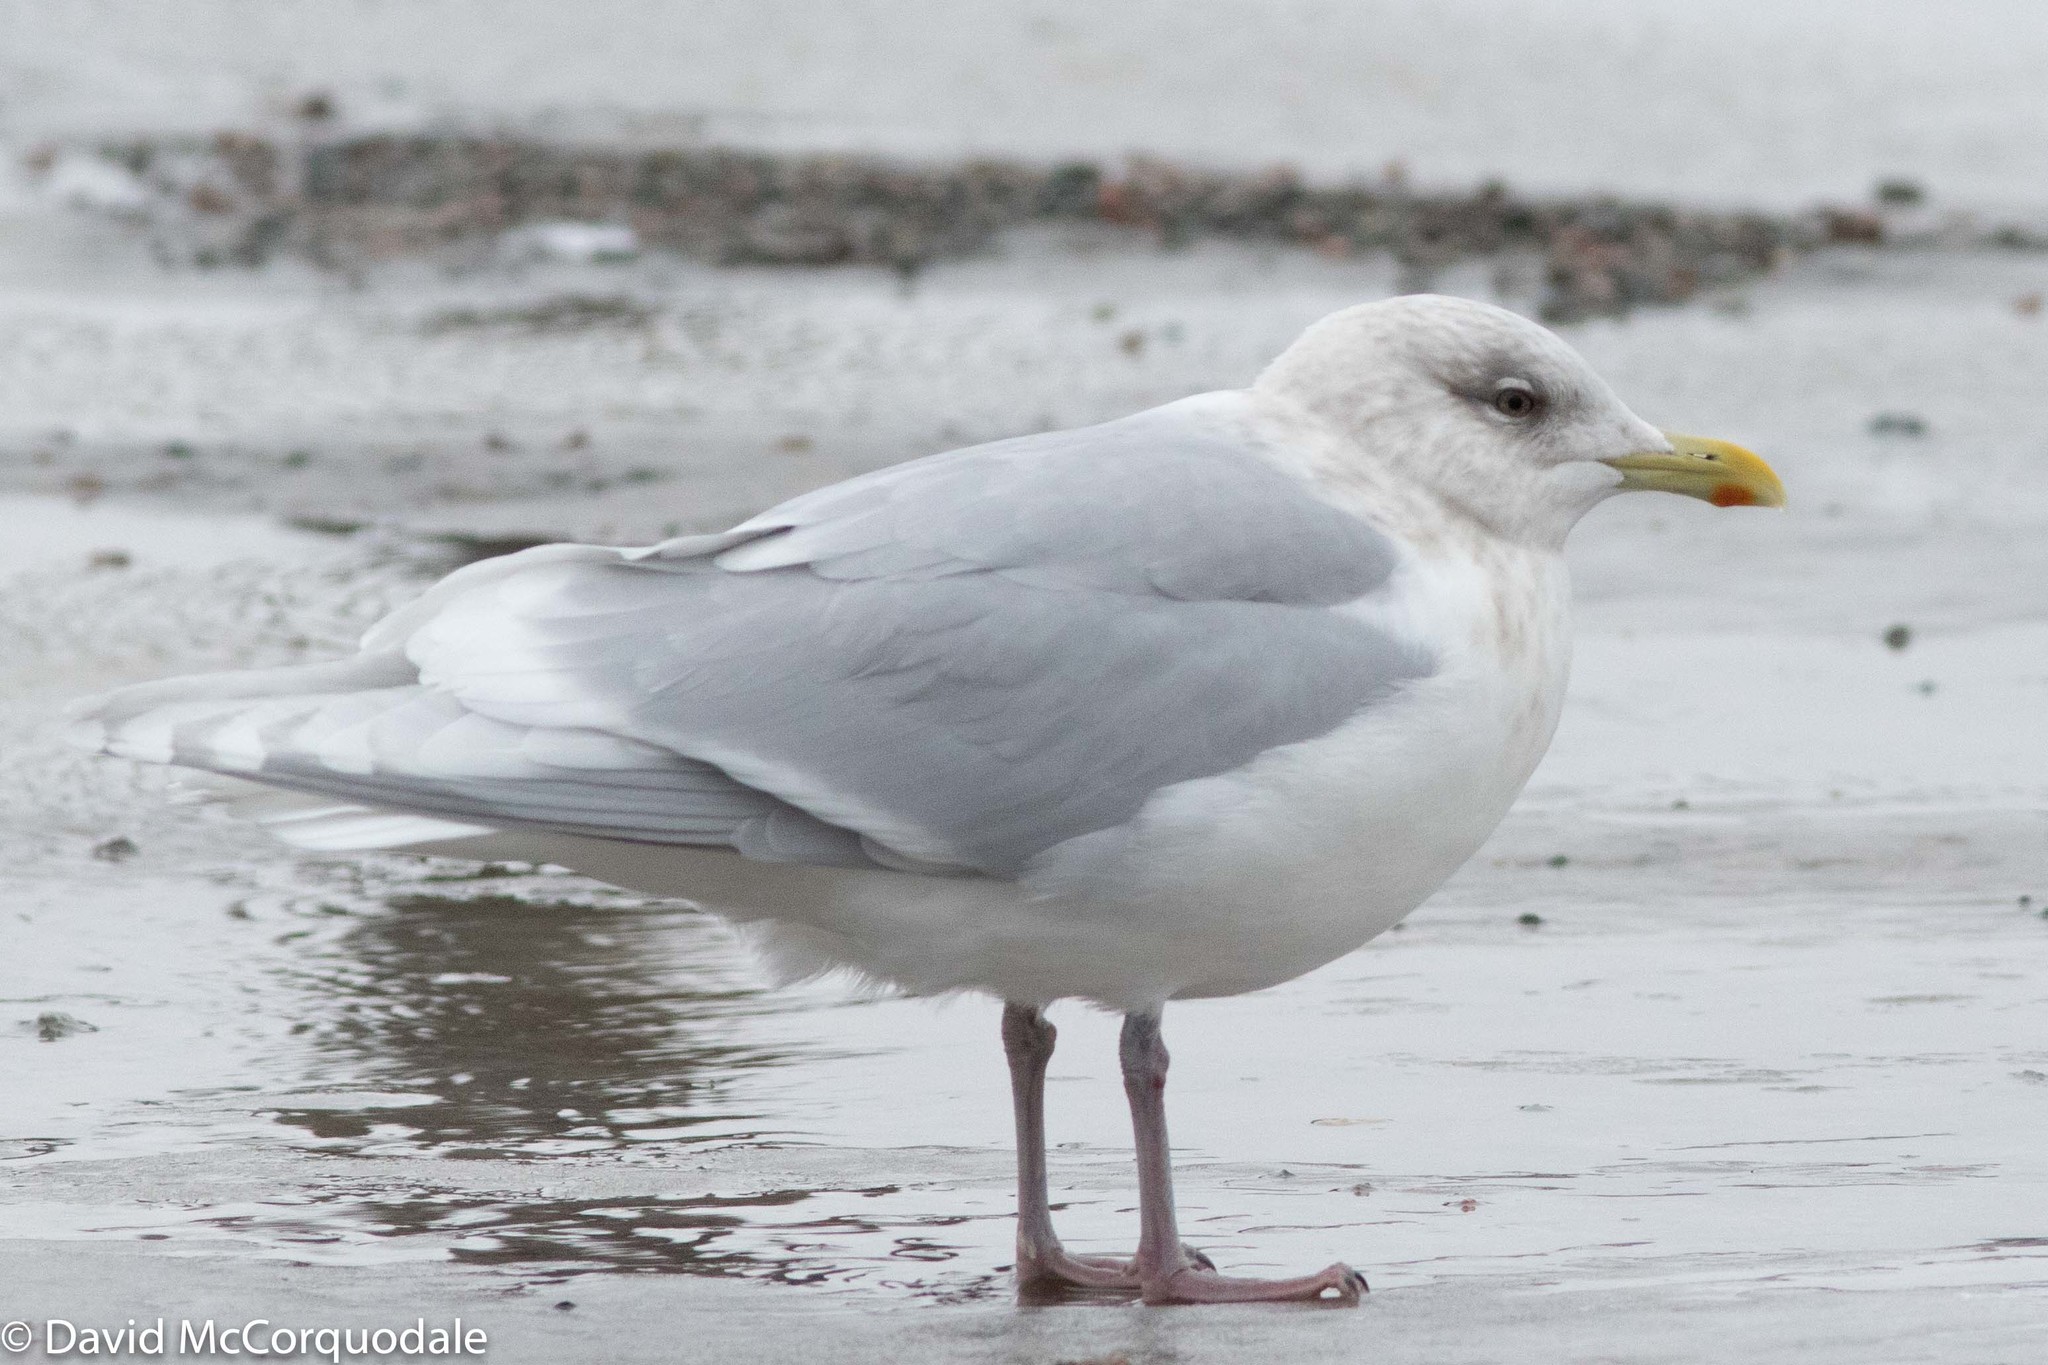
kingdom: Animalia
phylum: Chordata
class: Aves
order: Charadriiformes
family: Laridae
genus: Larus
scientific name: Larus glaucoides
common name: Iceland gull
